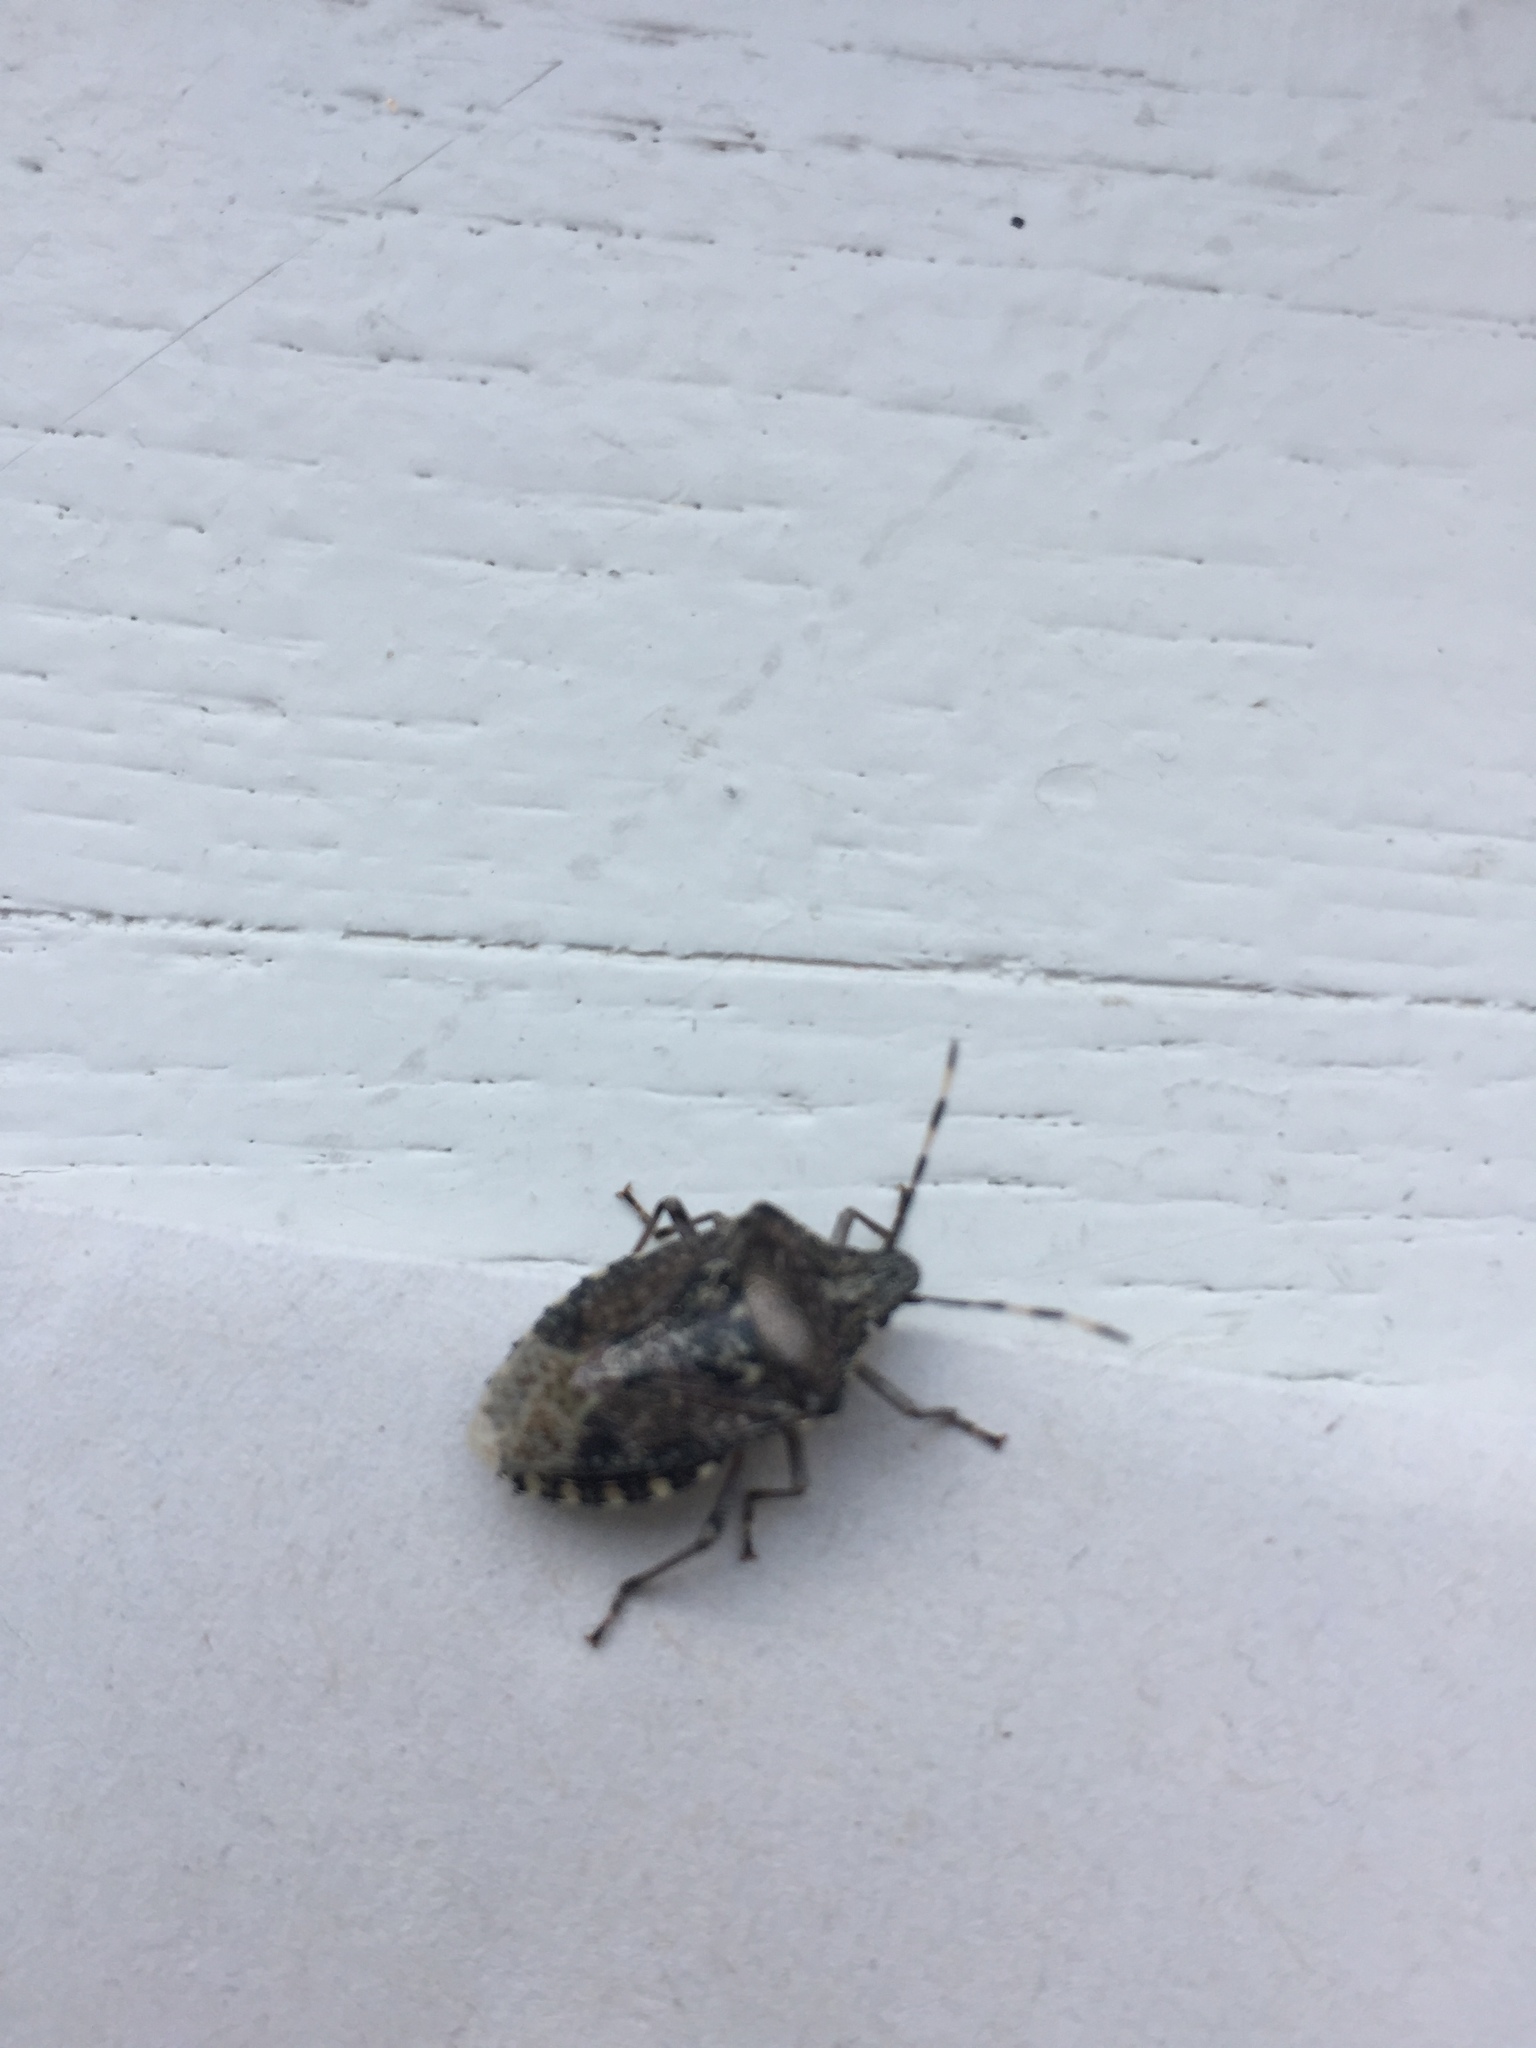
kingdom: Animalia
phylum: Arthropoda
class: Insecta
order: Hemiptera
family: Pentatomidae
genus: Rhaphigaster
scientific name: Rhaphigaster nebulosa
